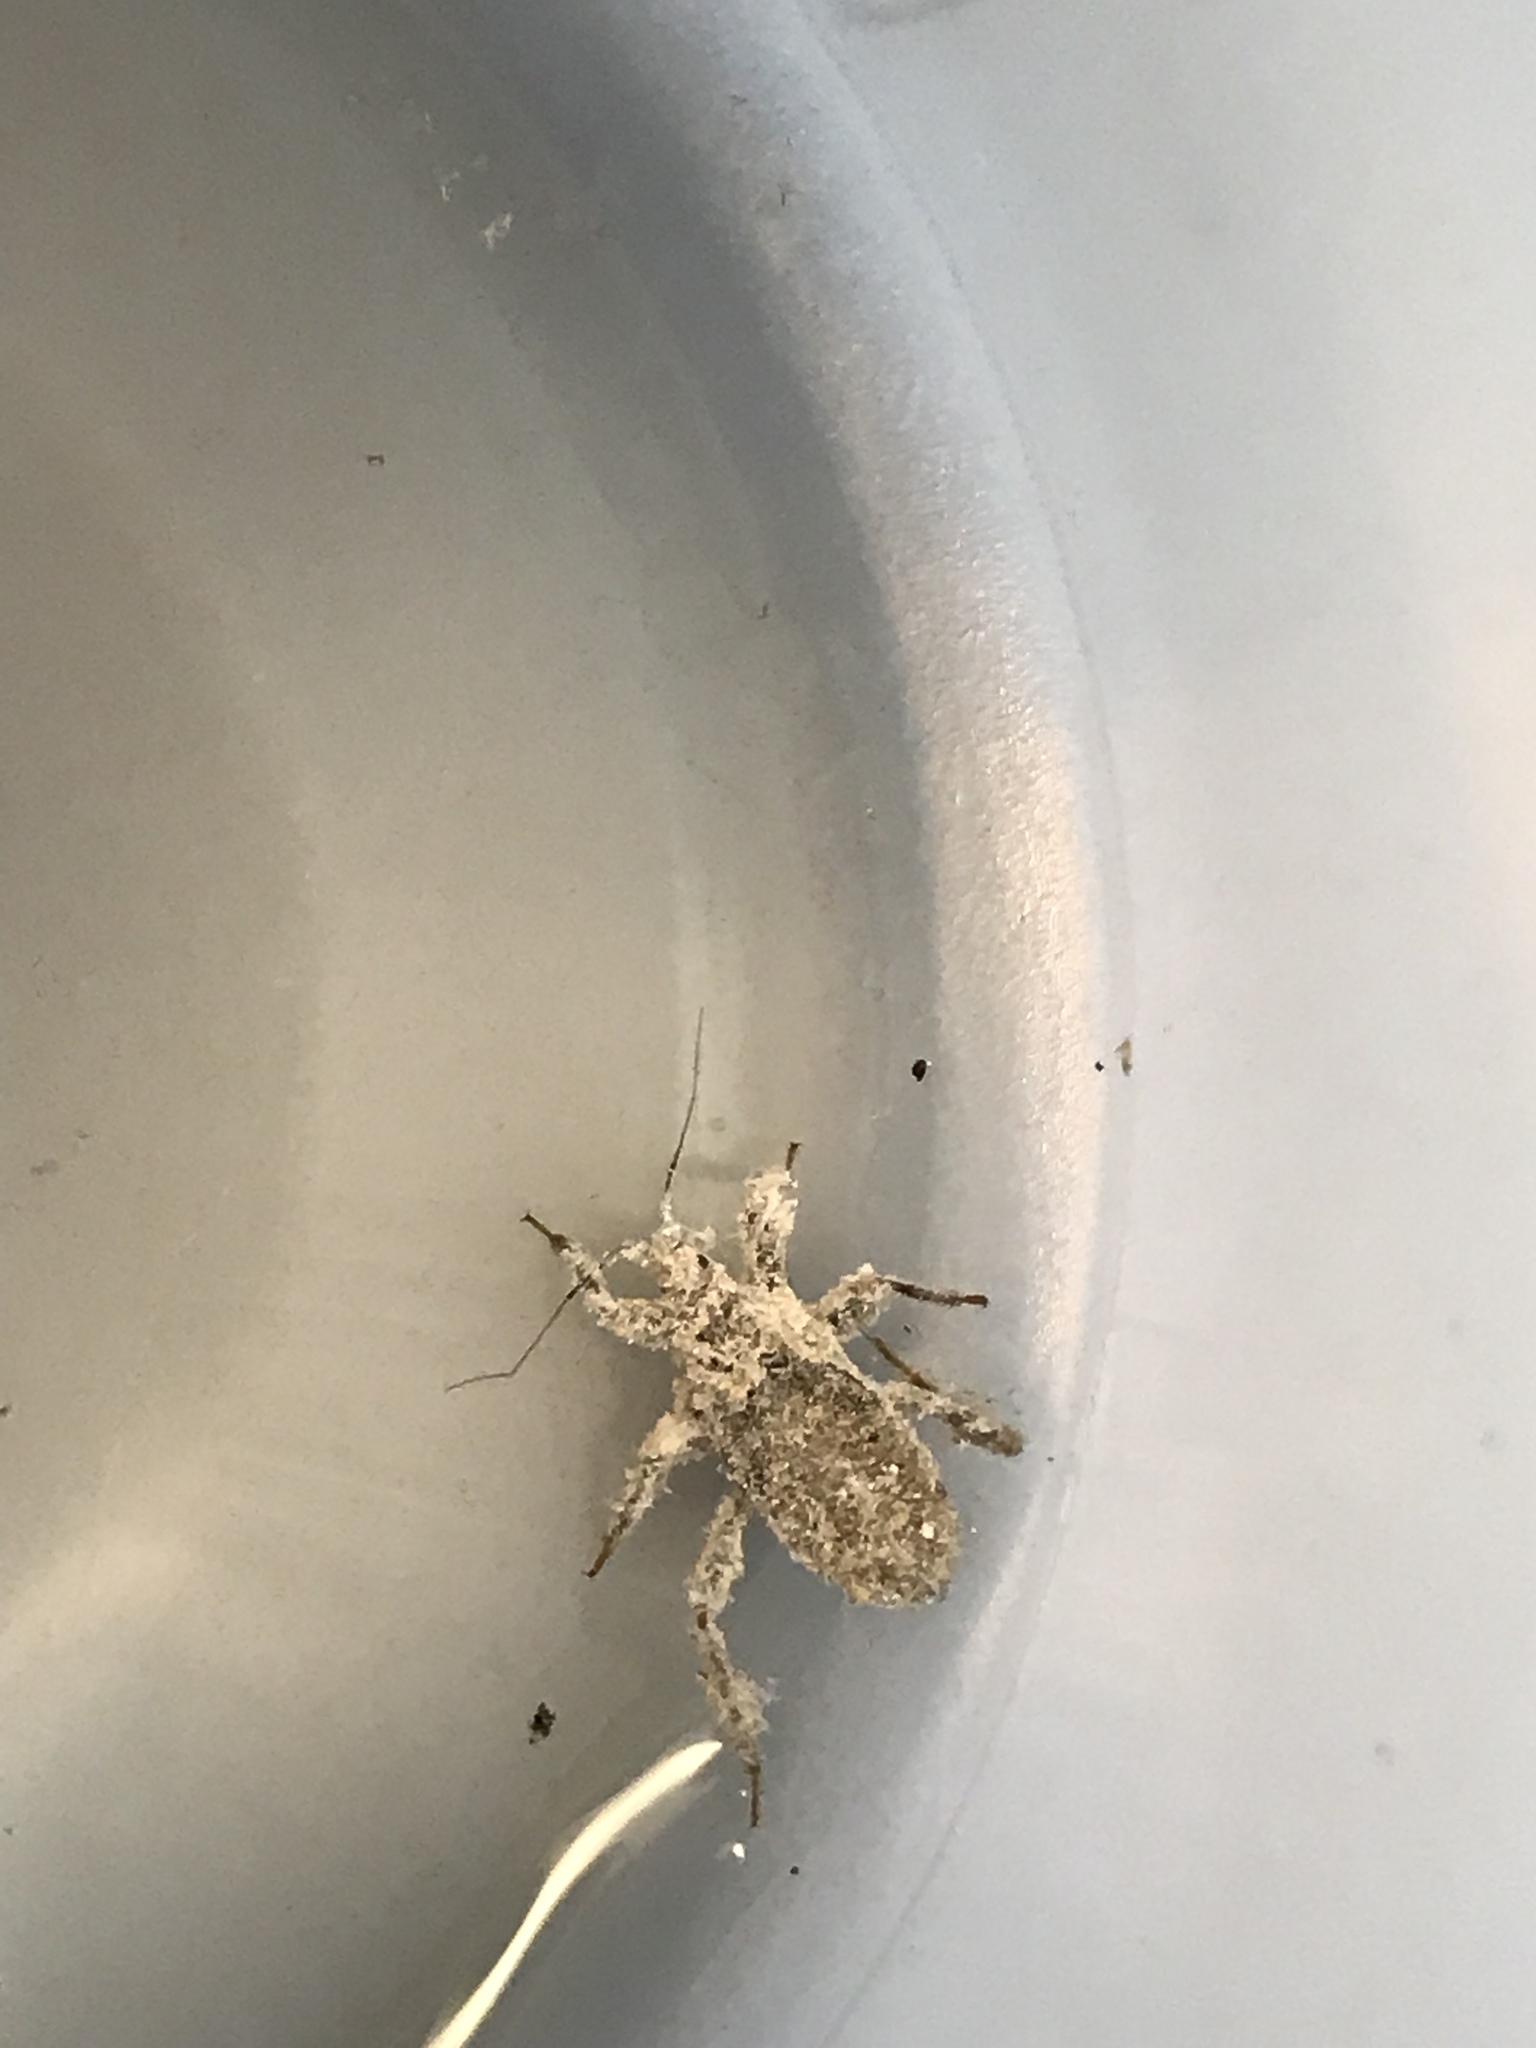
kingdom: Animalia
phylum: Arthropoda
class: Insecta
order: Hemiptera
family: Reduviidae
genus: Reduvius
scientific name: Reduvius personatus
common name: Masked hunter
